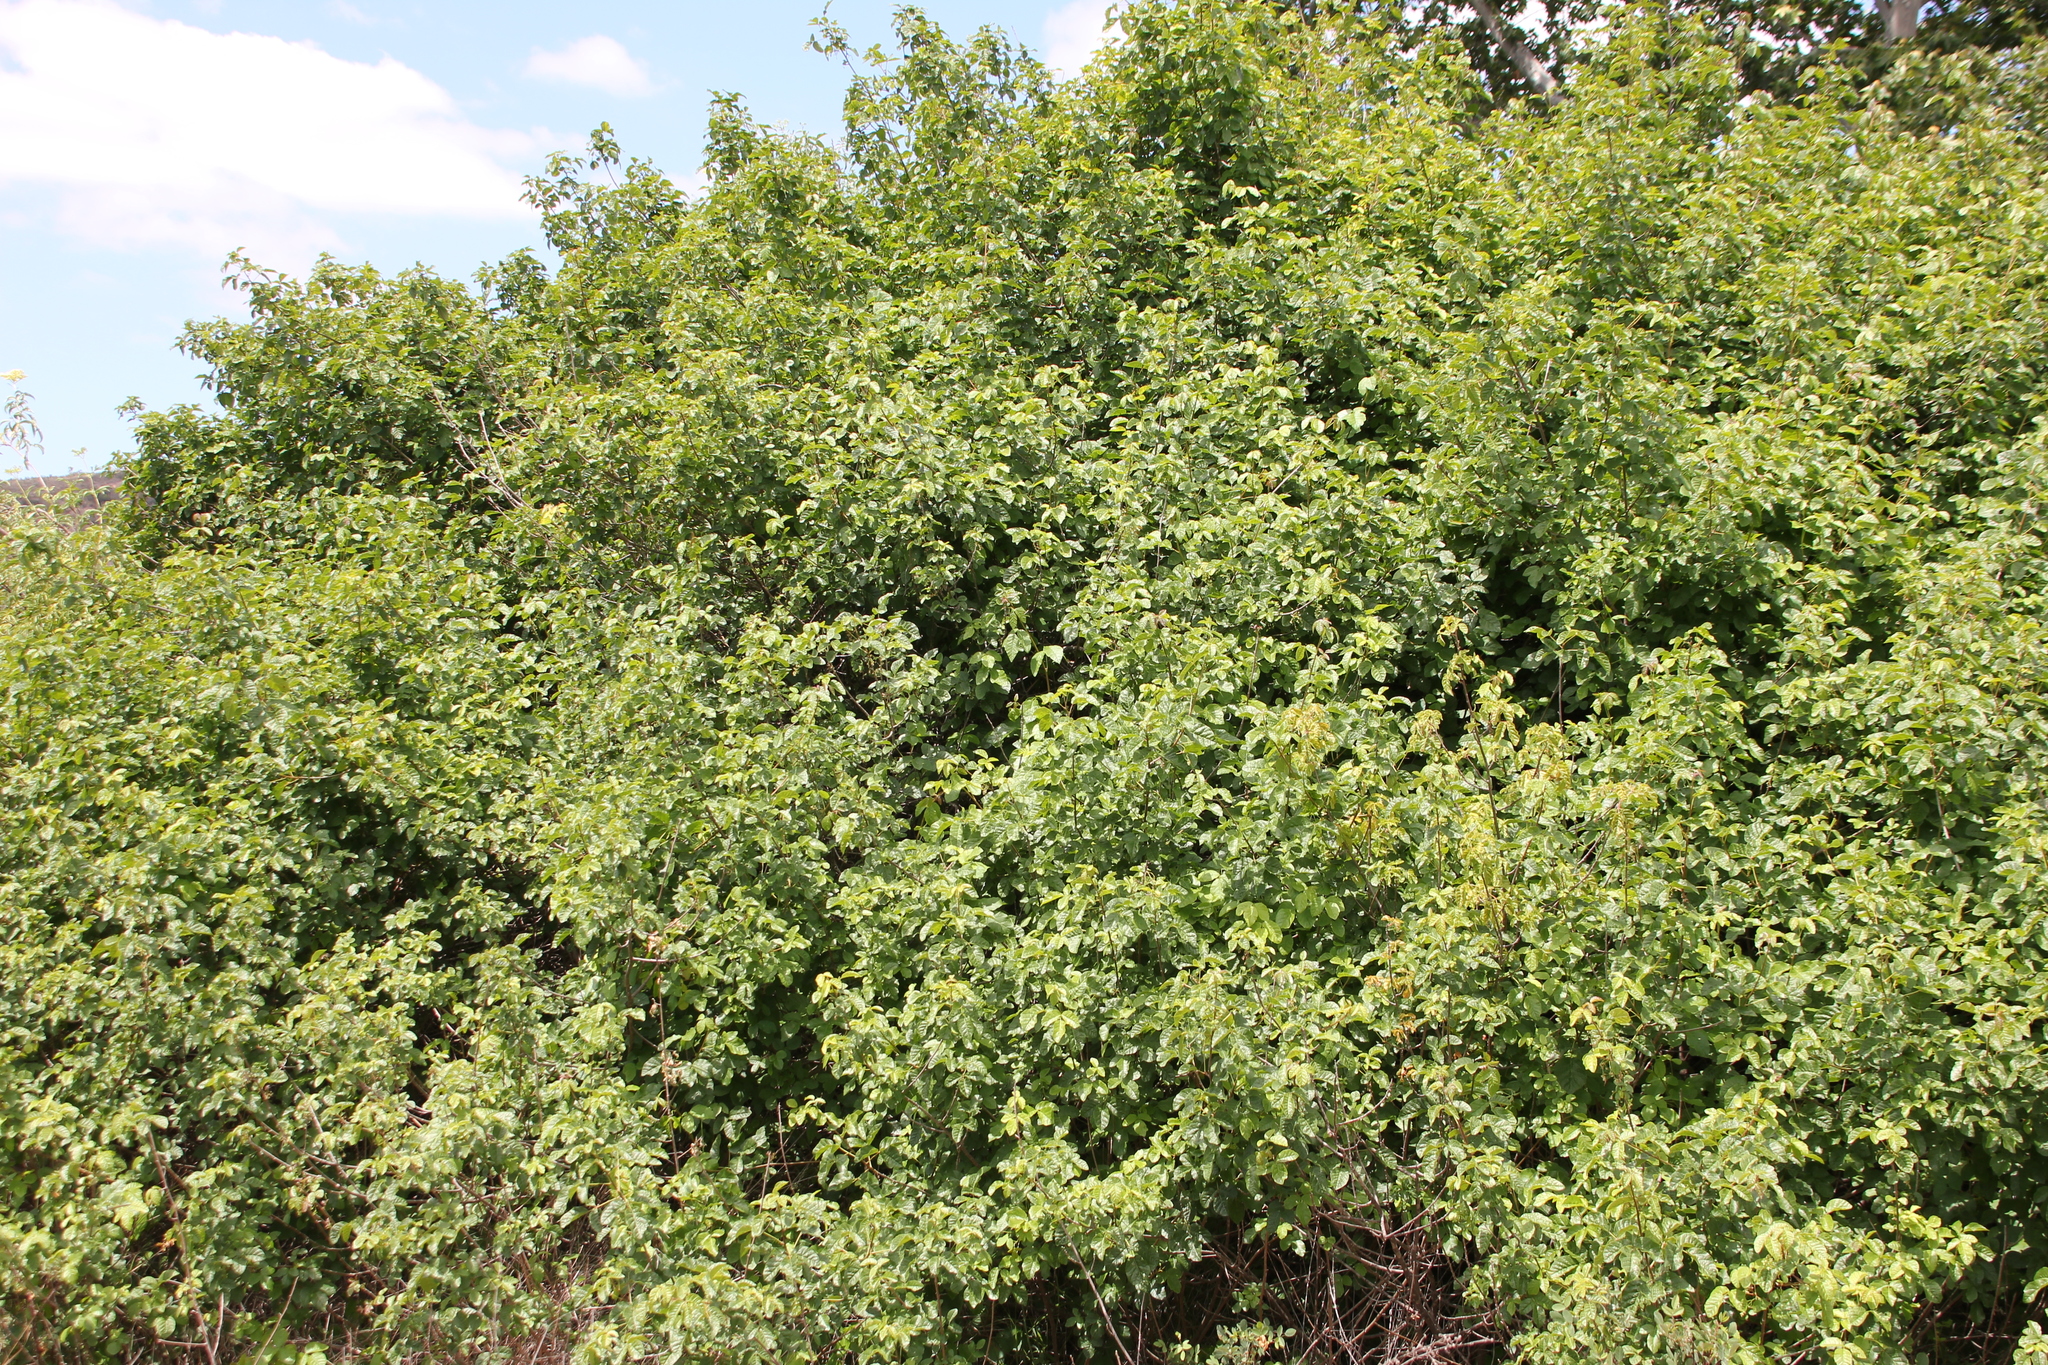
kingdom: Plantae
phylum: Tracheophyta
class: Magnoliopsida
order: Sapindales
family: Anacardiaceae
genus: Toxicodendron
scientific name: Toxicodendron diversilobum
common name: Pacific poison-oak
